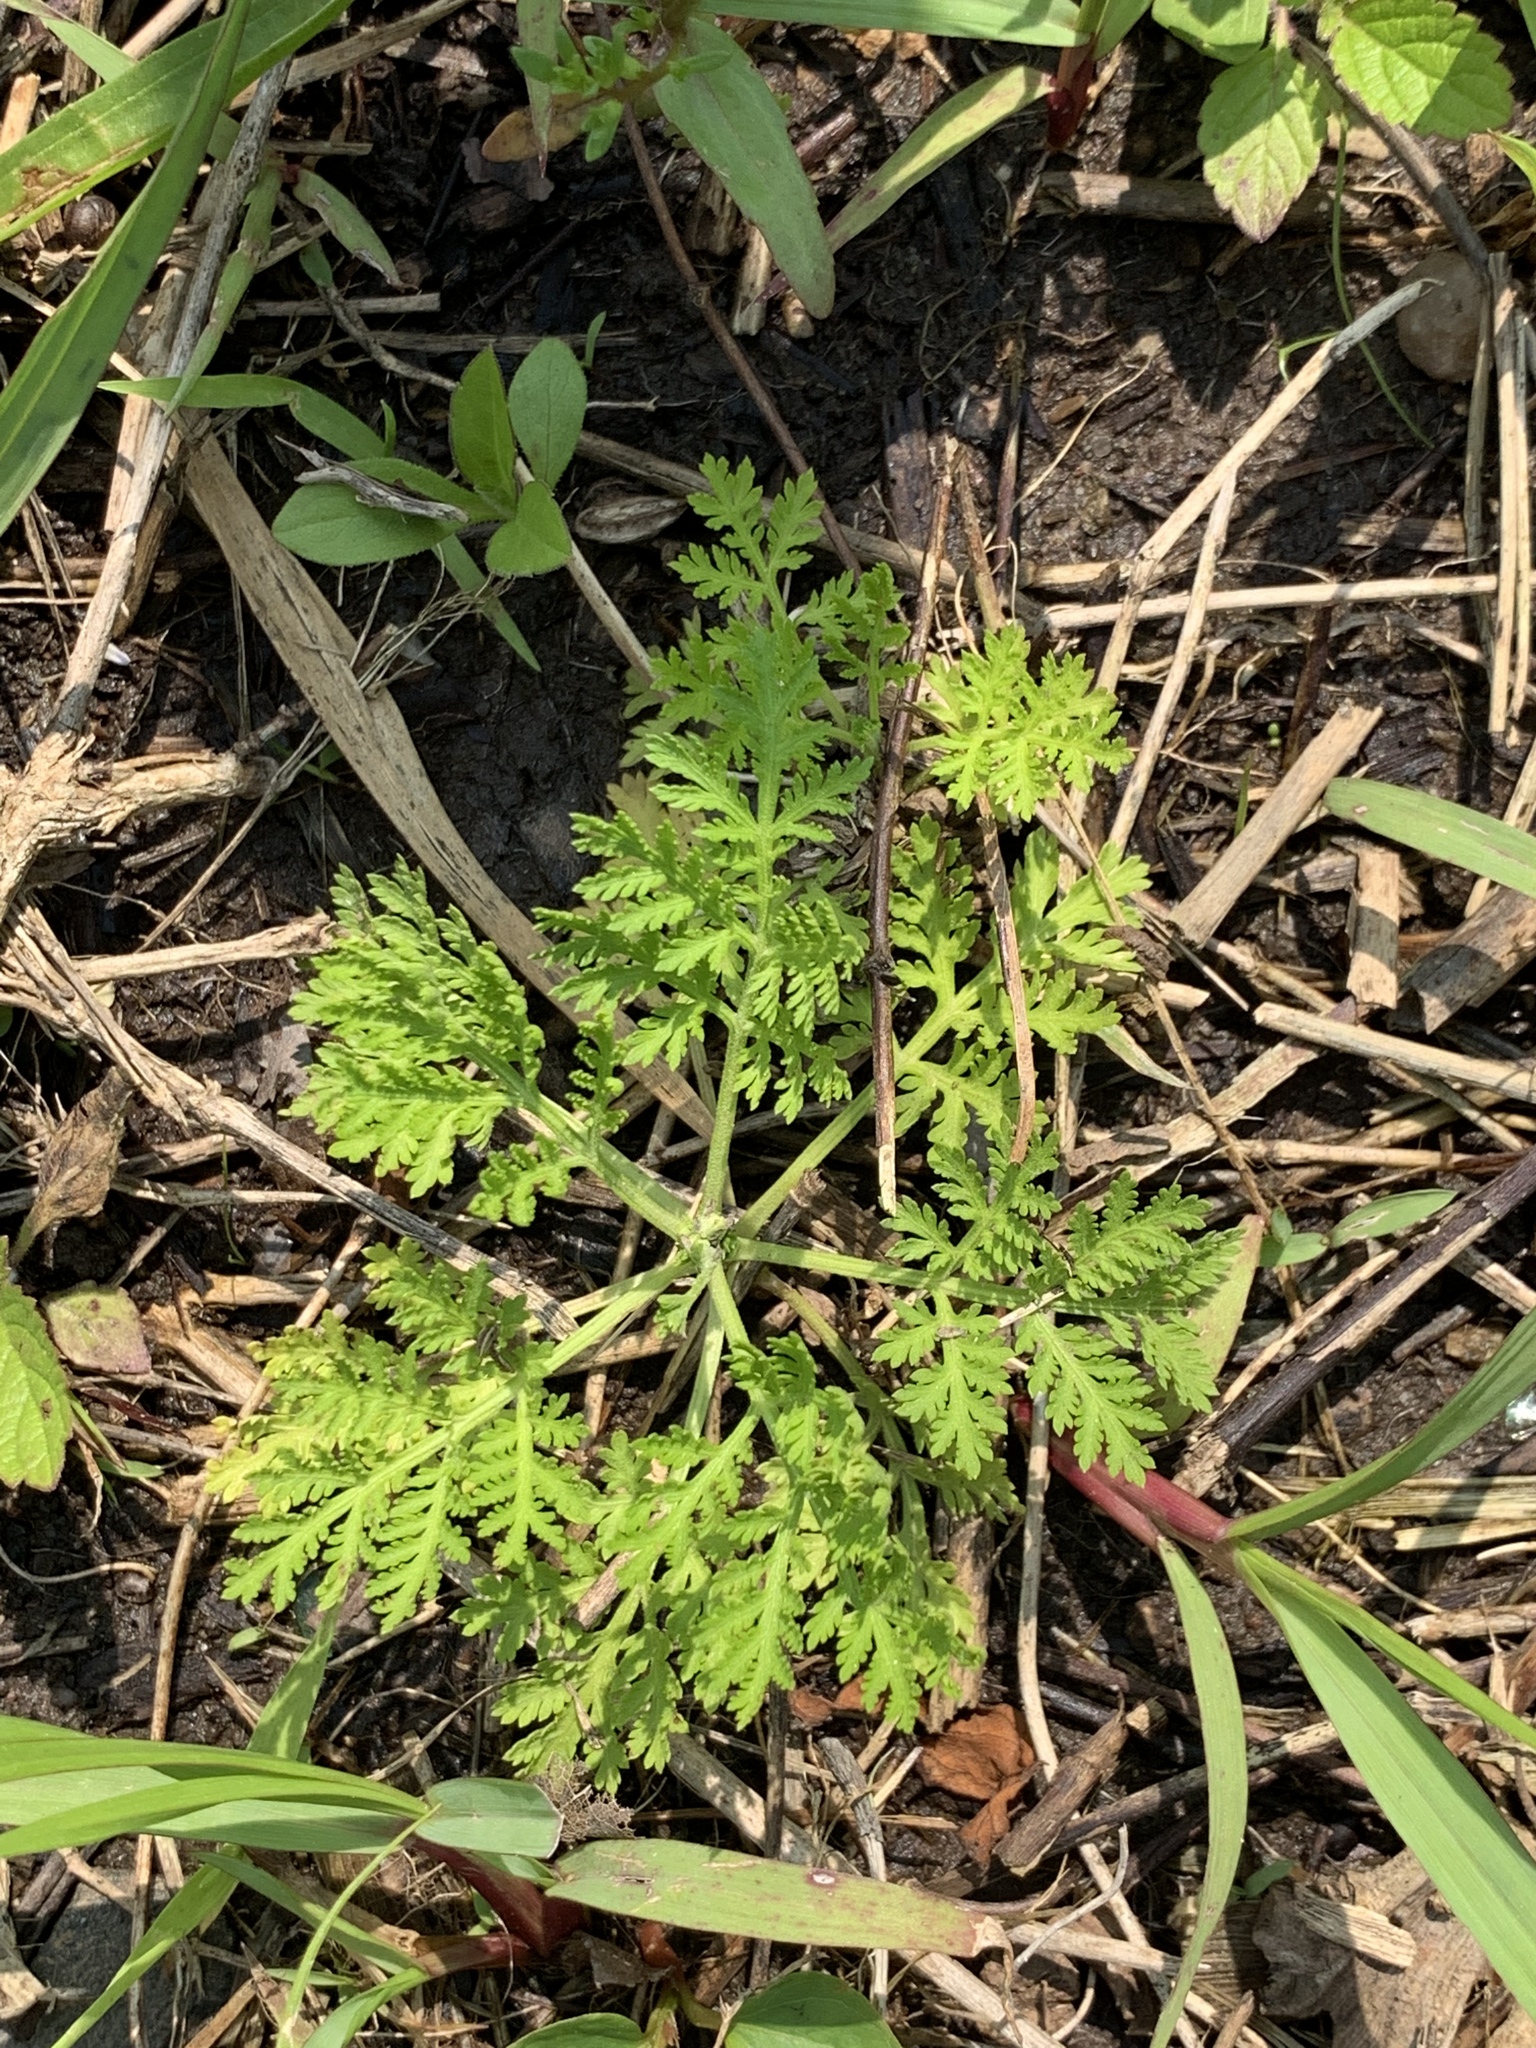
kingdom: Plantae
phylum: Tracheophyta
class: Magnoliopsida
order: Asterales
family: Asteraceae
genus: Artemisia
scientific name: Artemisia annua
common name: Sweet sagewort
